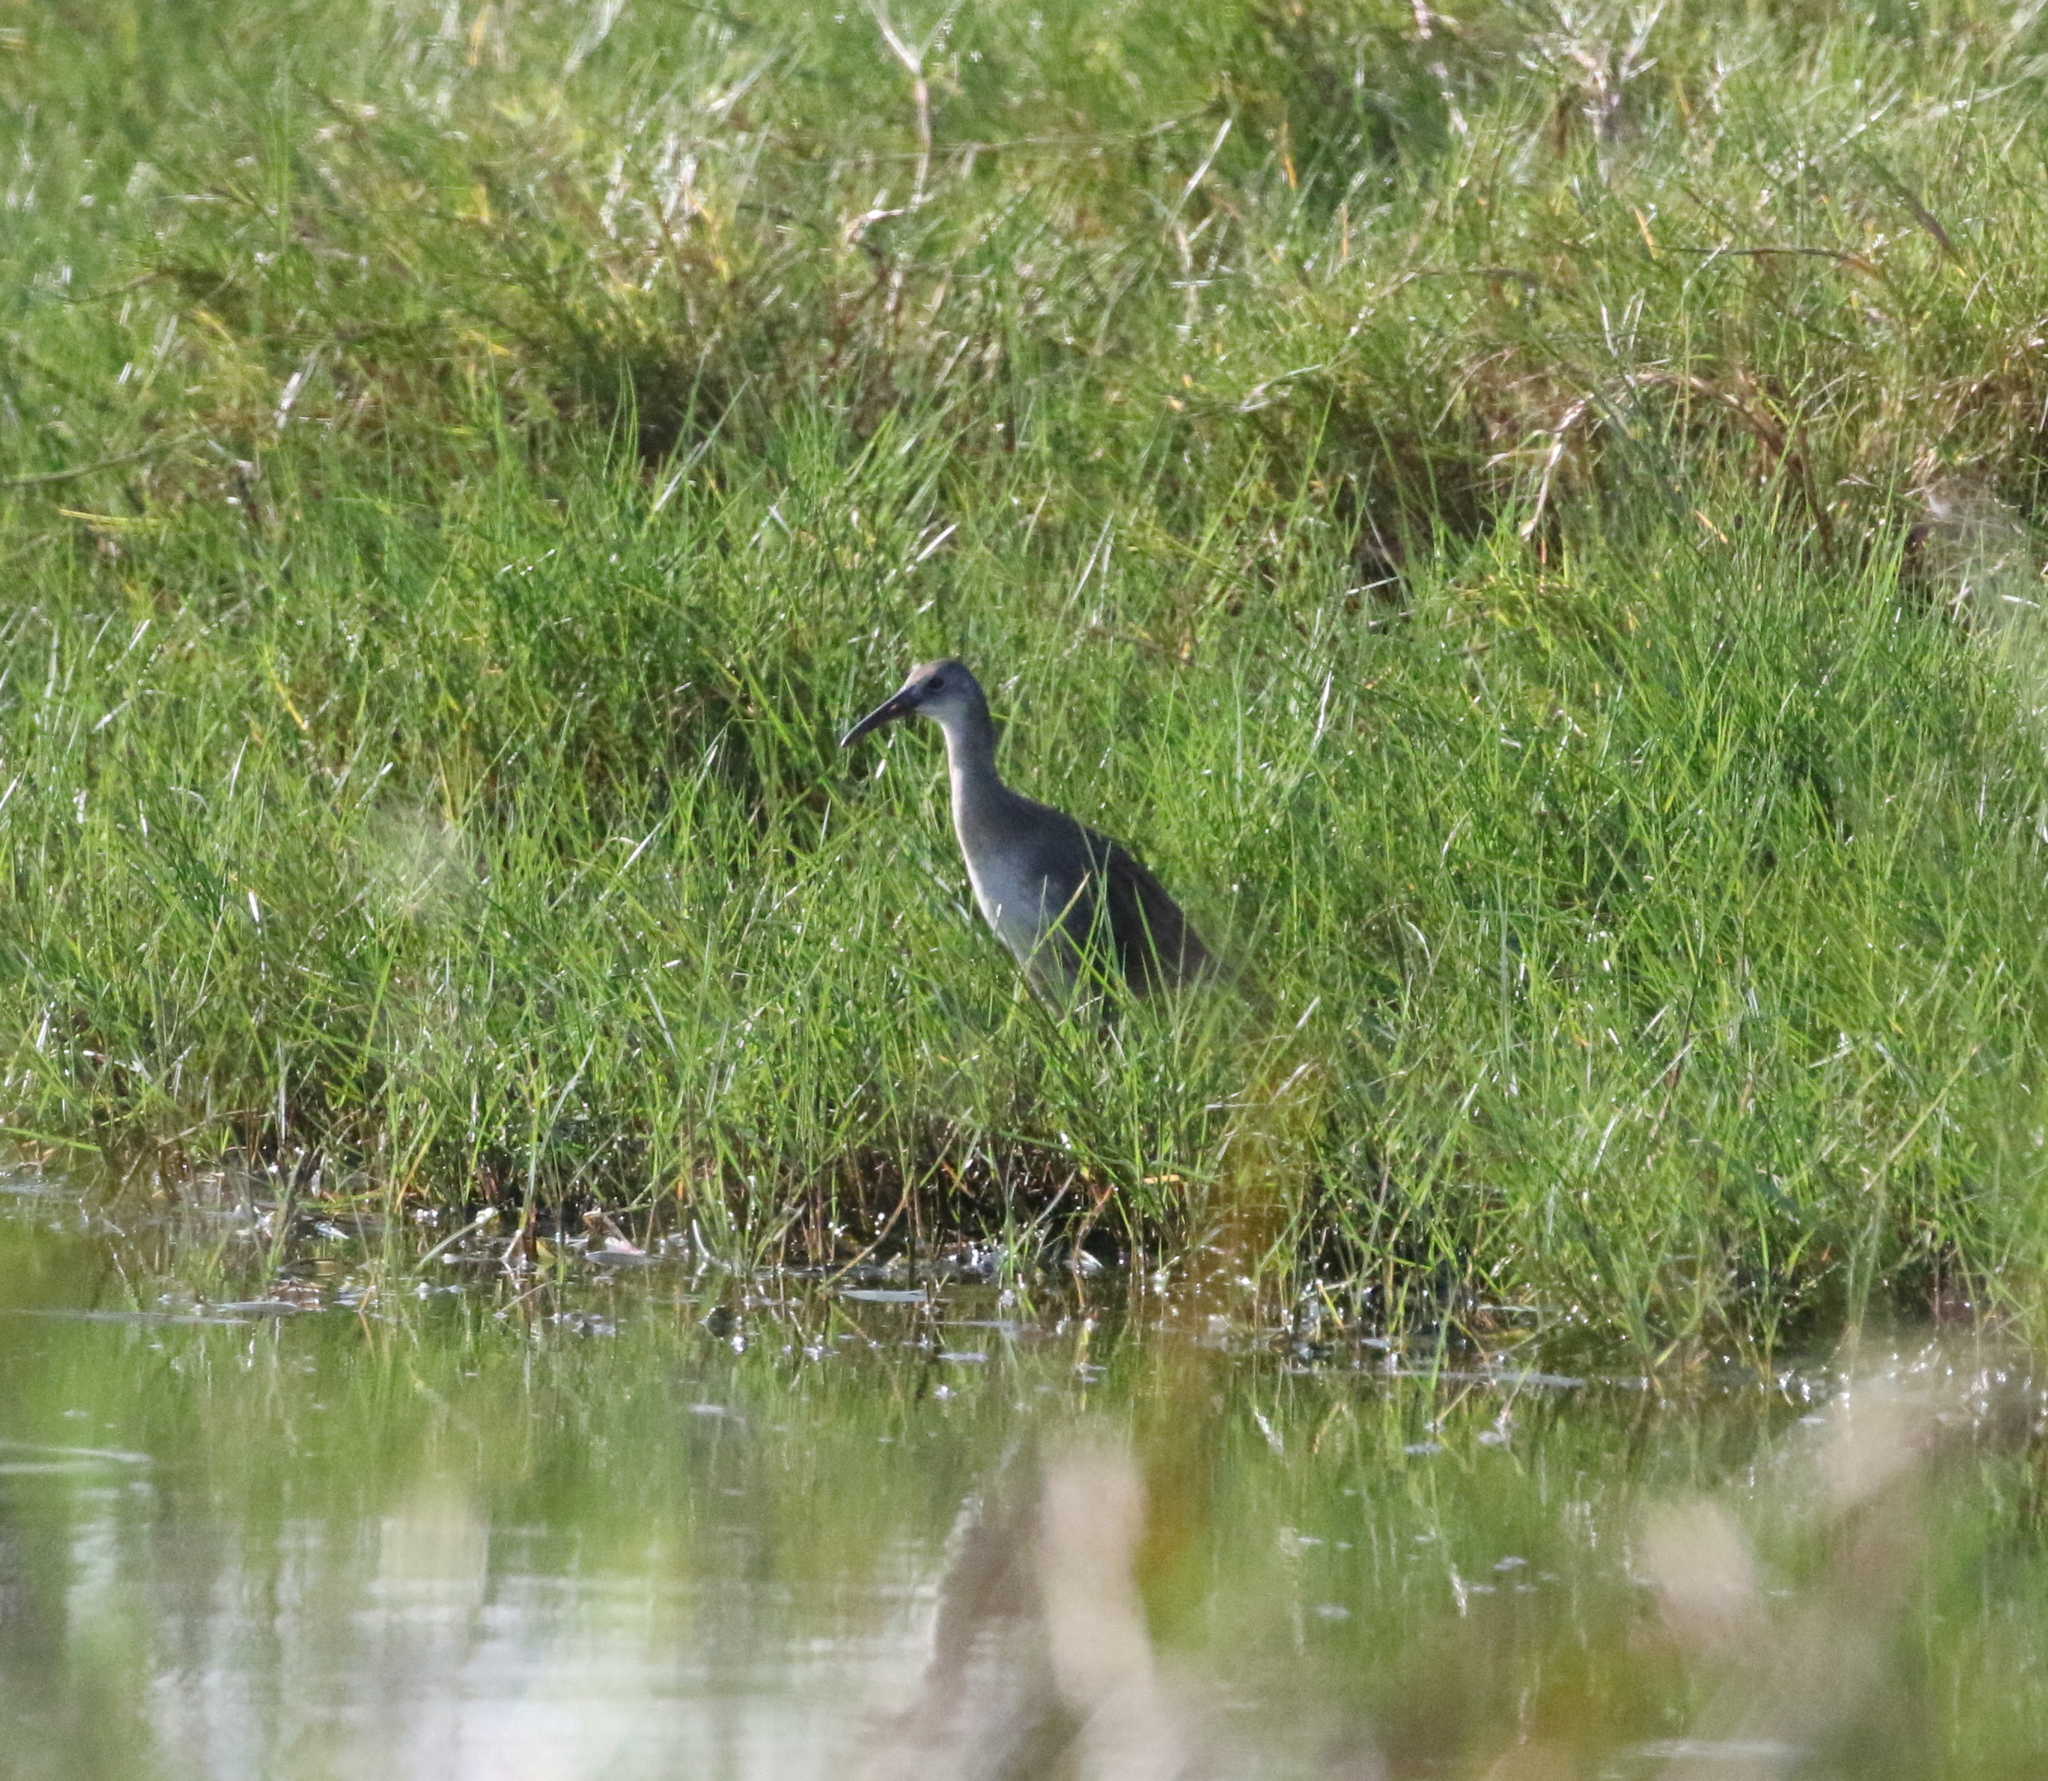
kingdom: Animalia
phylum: Chordata
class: Aves
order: Gruiformes
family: Rallidae
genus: Rallus
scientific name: Rallus crepitans
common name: Clapper rail
